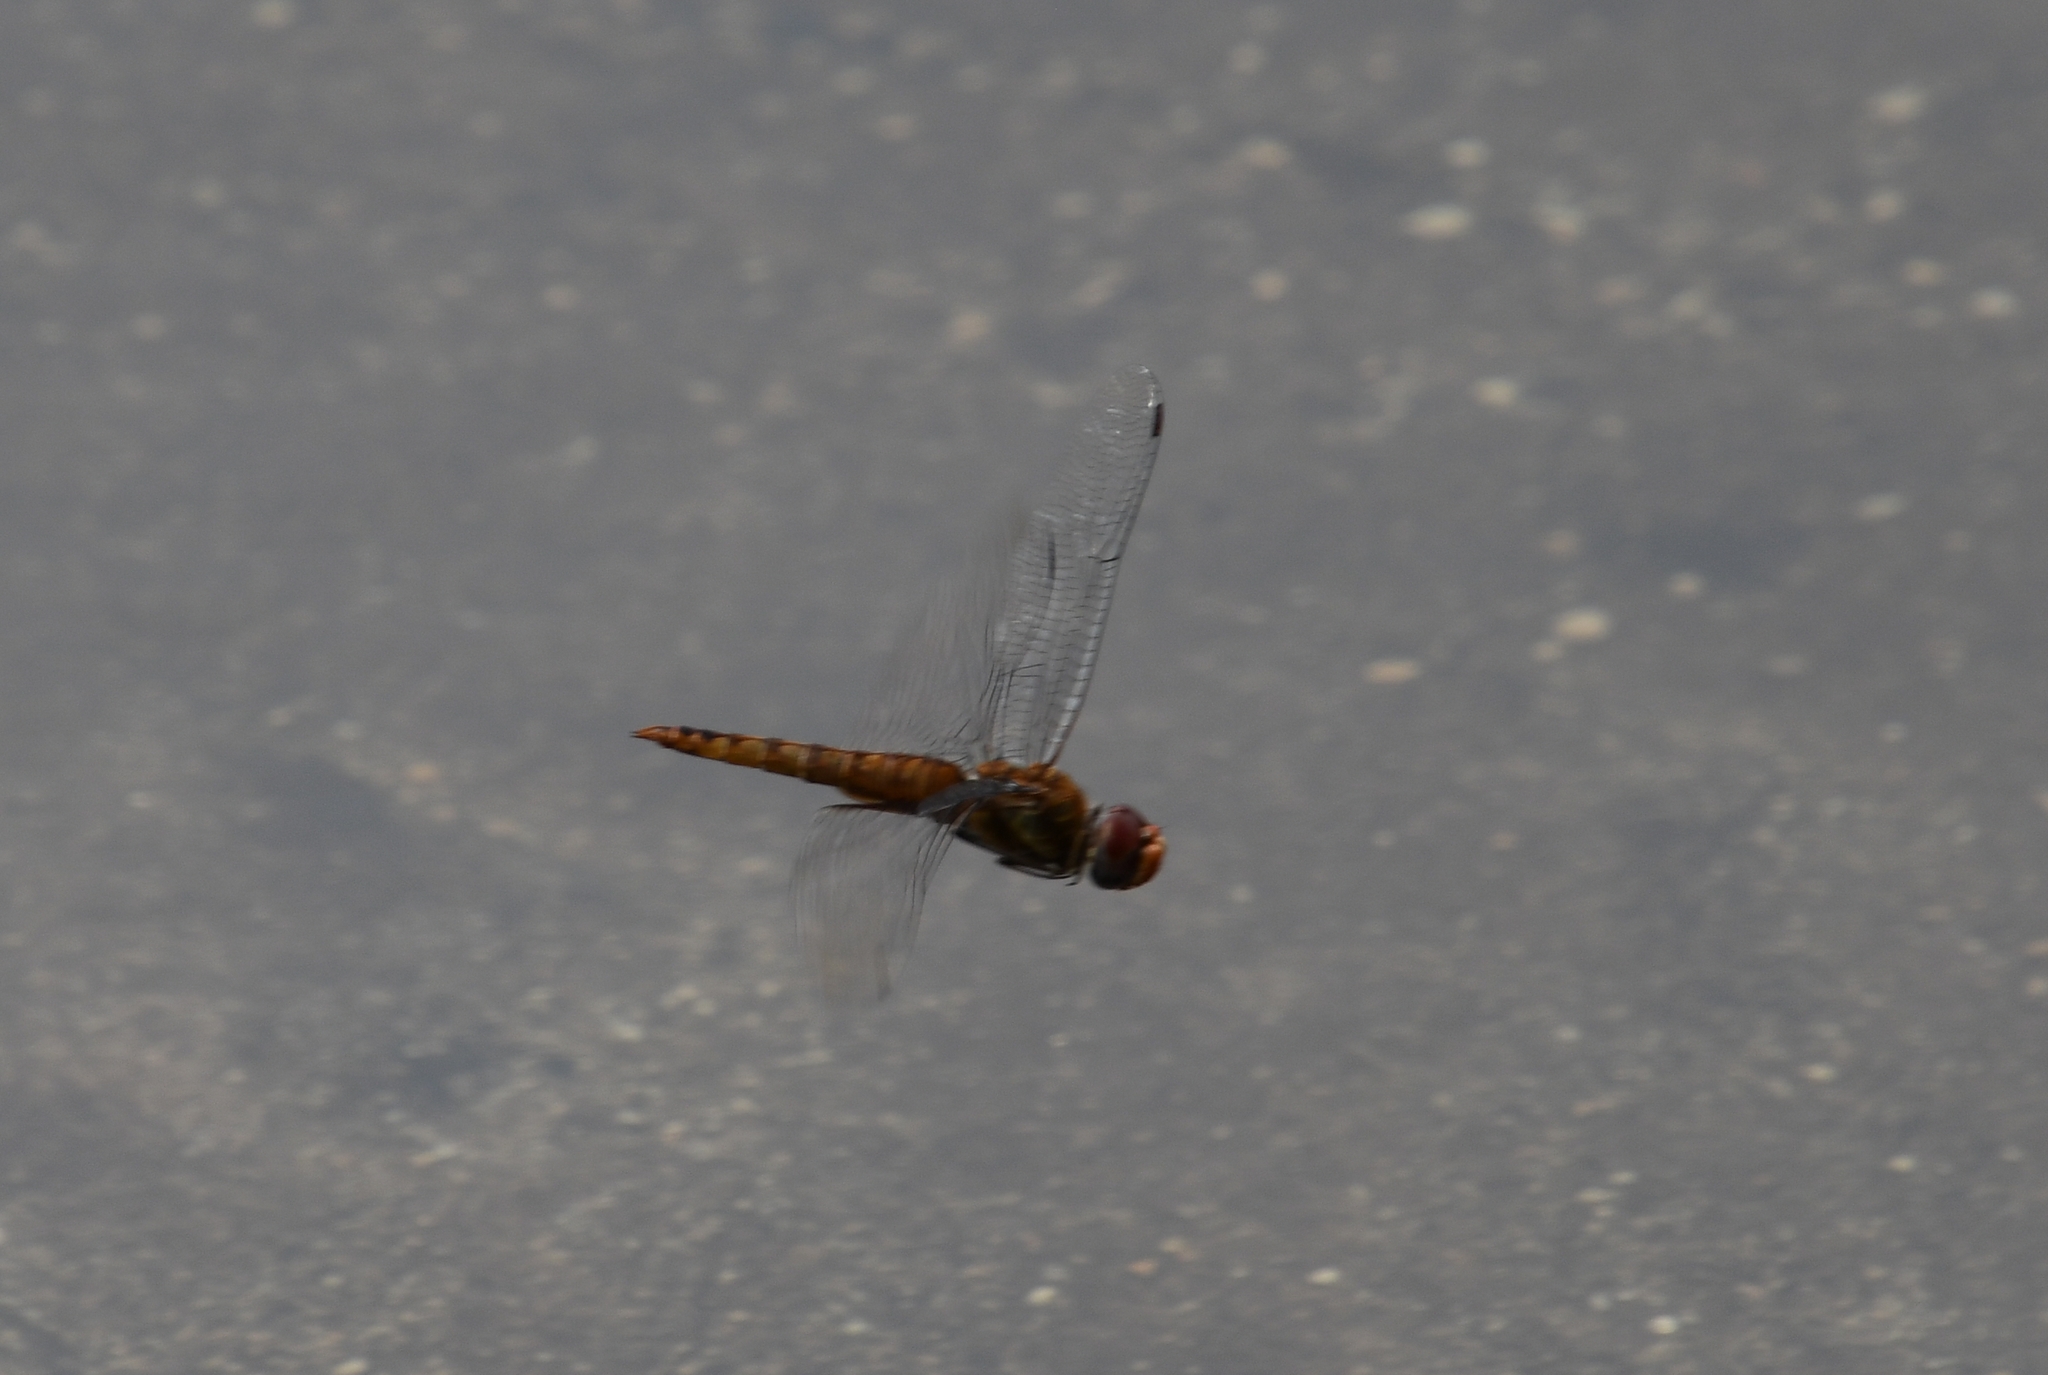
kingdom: Animalia
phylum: Arthropoda
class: Insecta
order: Odonata
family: Libellulidae
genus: Pantala
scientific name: Pantala hymenaea
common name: Spot-winged glider
